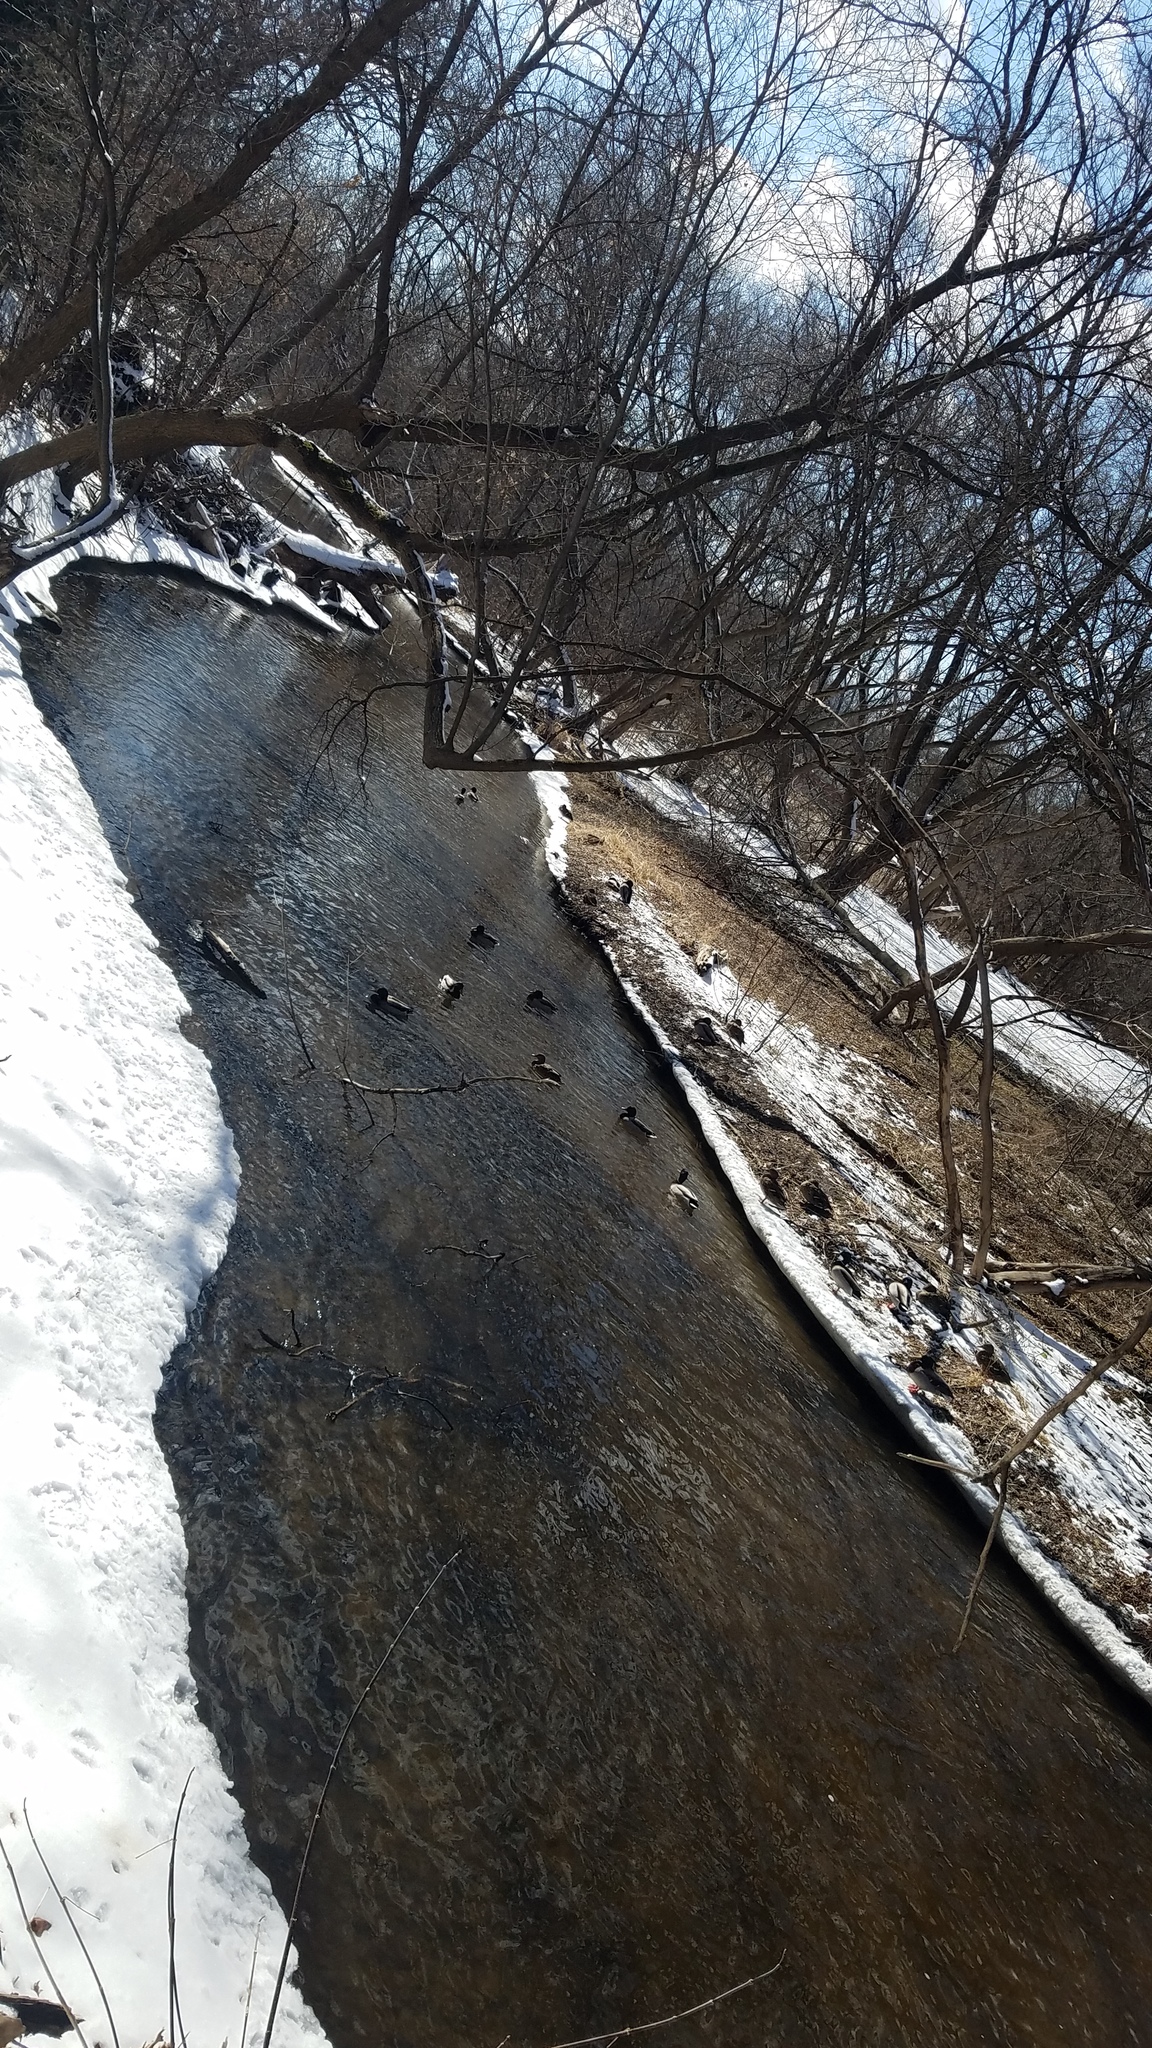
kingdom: Animalia
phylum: Chordata
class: Aves
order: Anseriformes
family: Anatidae
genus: Anas
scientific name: Anas platyrhynchos
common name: Mallard
